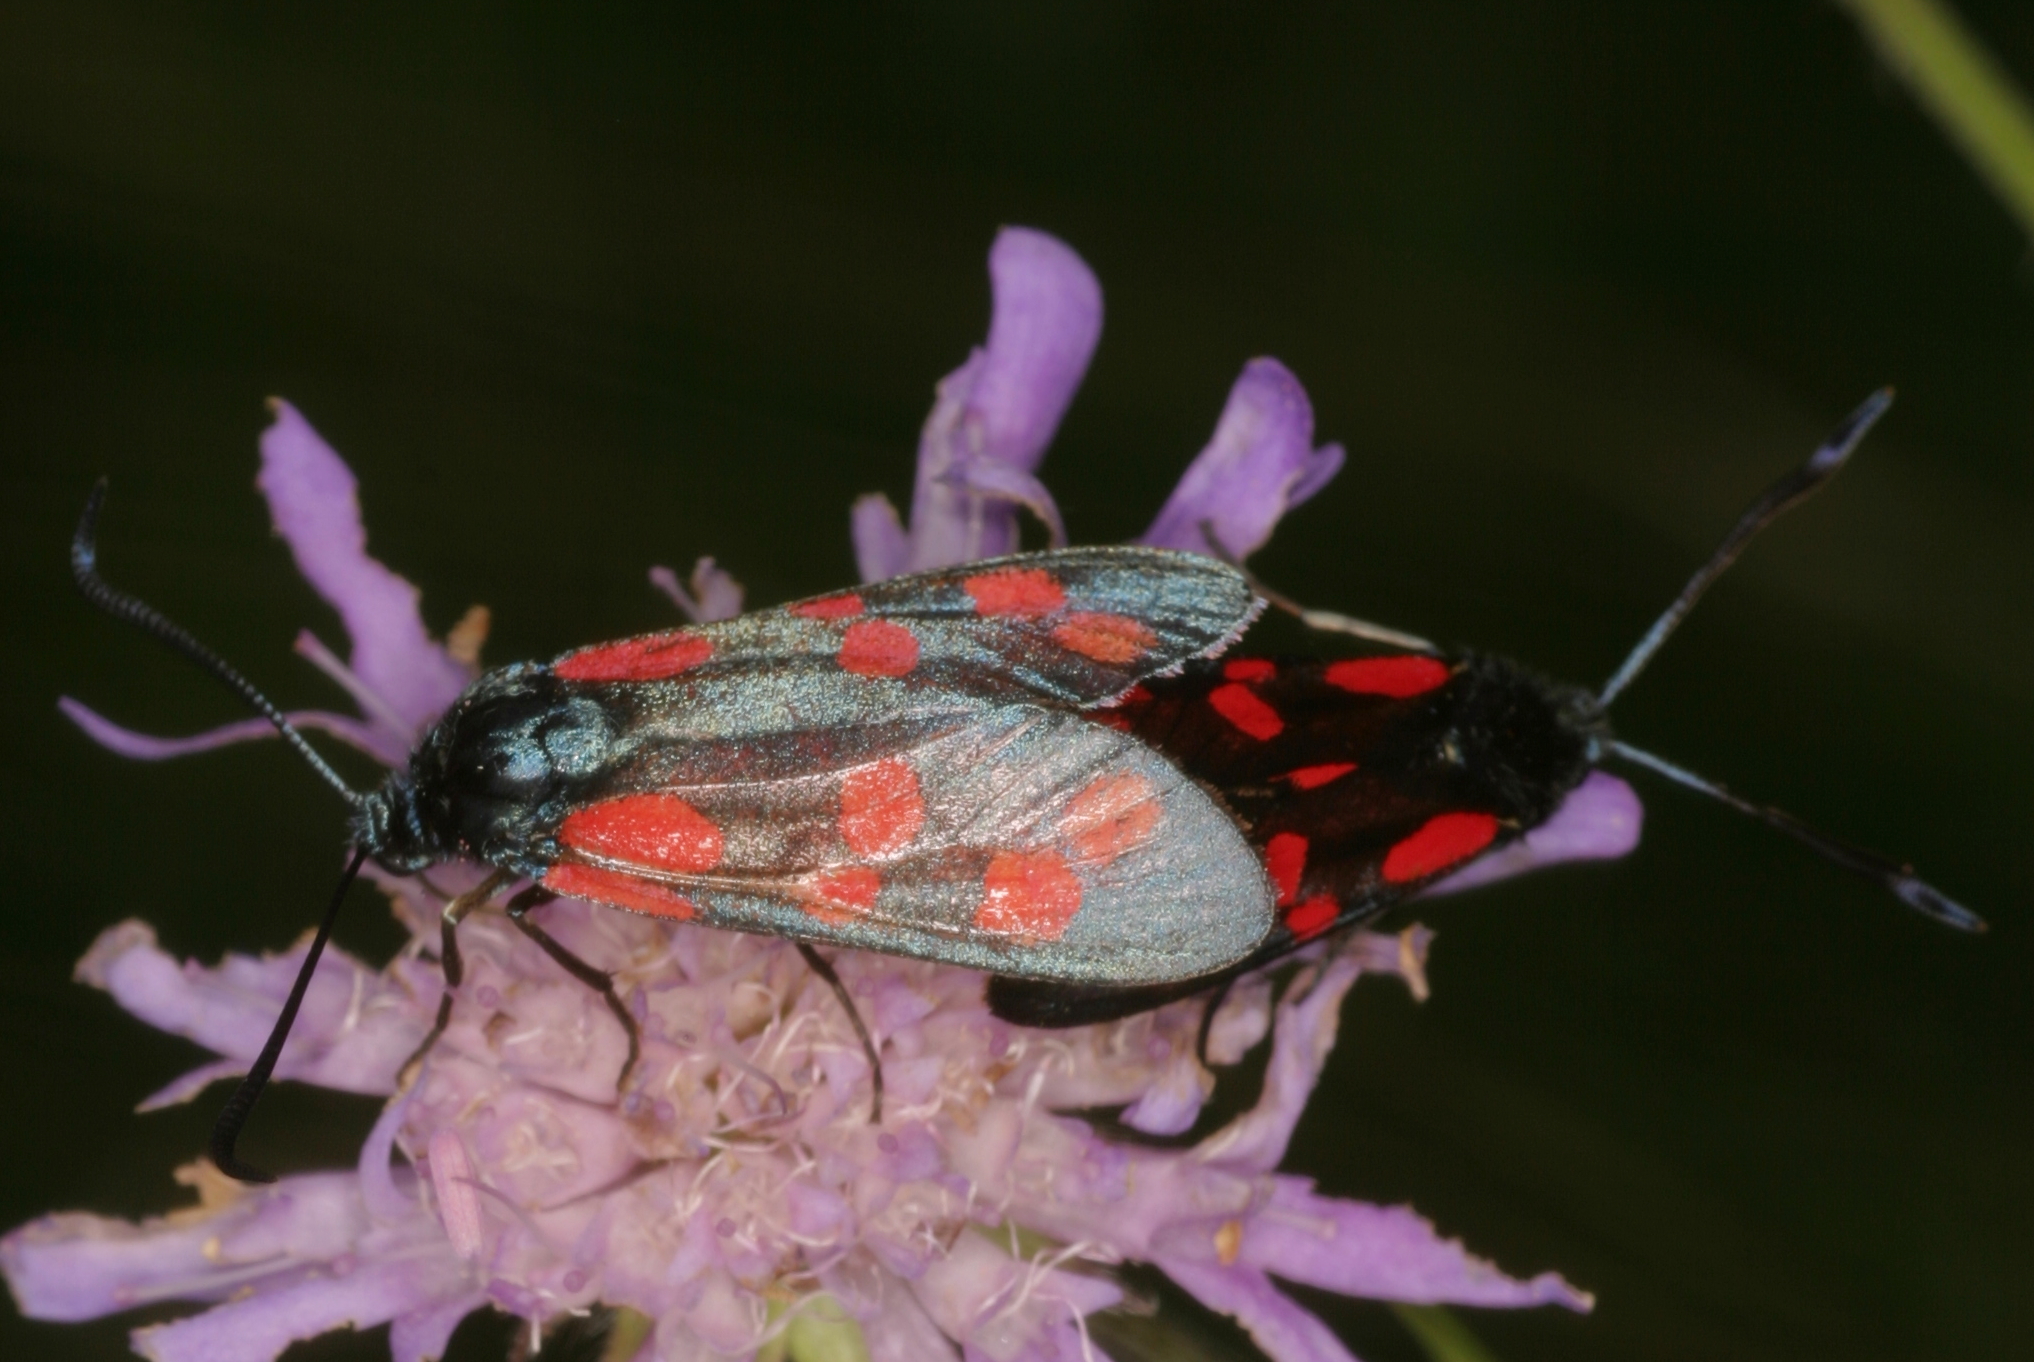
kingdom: Animalia
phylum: Arthropoda
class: Insecta
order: Lepidoptera
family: Zygaenidae
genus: Zygaena
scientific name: Zygaena filipendulae
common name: Six-spot burnet
